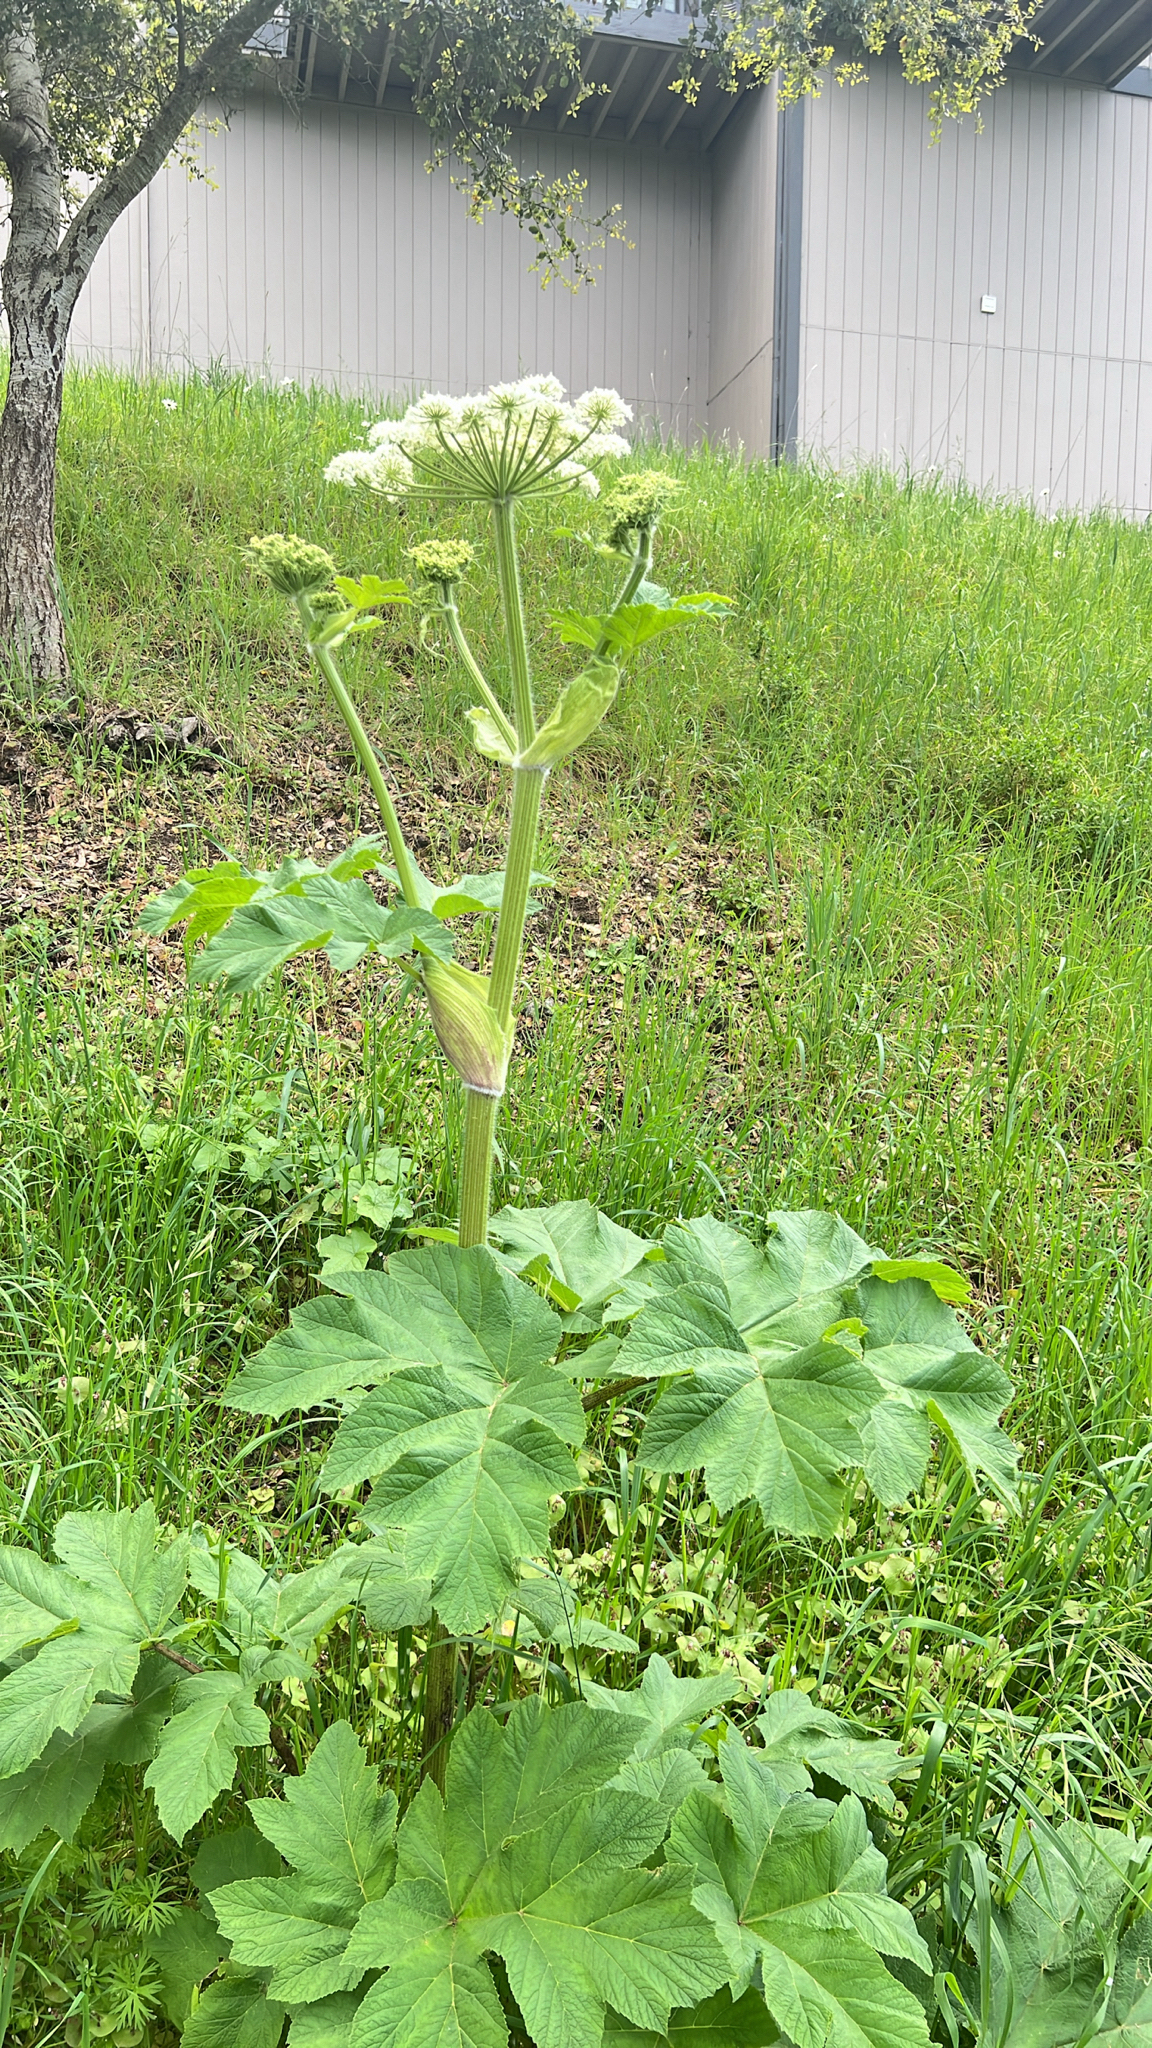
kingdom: Plantae
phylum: Tracheophyta
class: Magnoliopsida
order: Apiales
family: Apiaceae
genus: Heracleum
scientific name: Heracleum maximum
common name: American cow parsnip
